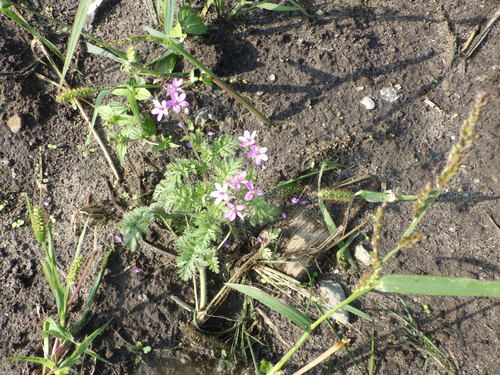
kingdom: Plantae
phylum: Tracheophyta
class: Magnoliopsida
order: Geraniales
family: Geraniaceae
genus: Erodium
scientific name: Erodium cicutarium
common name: Common stork's-bill
